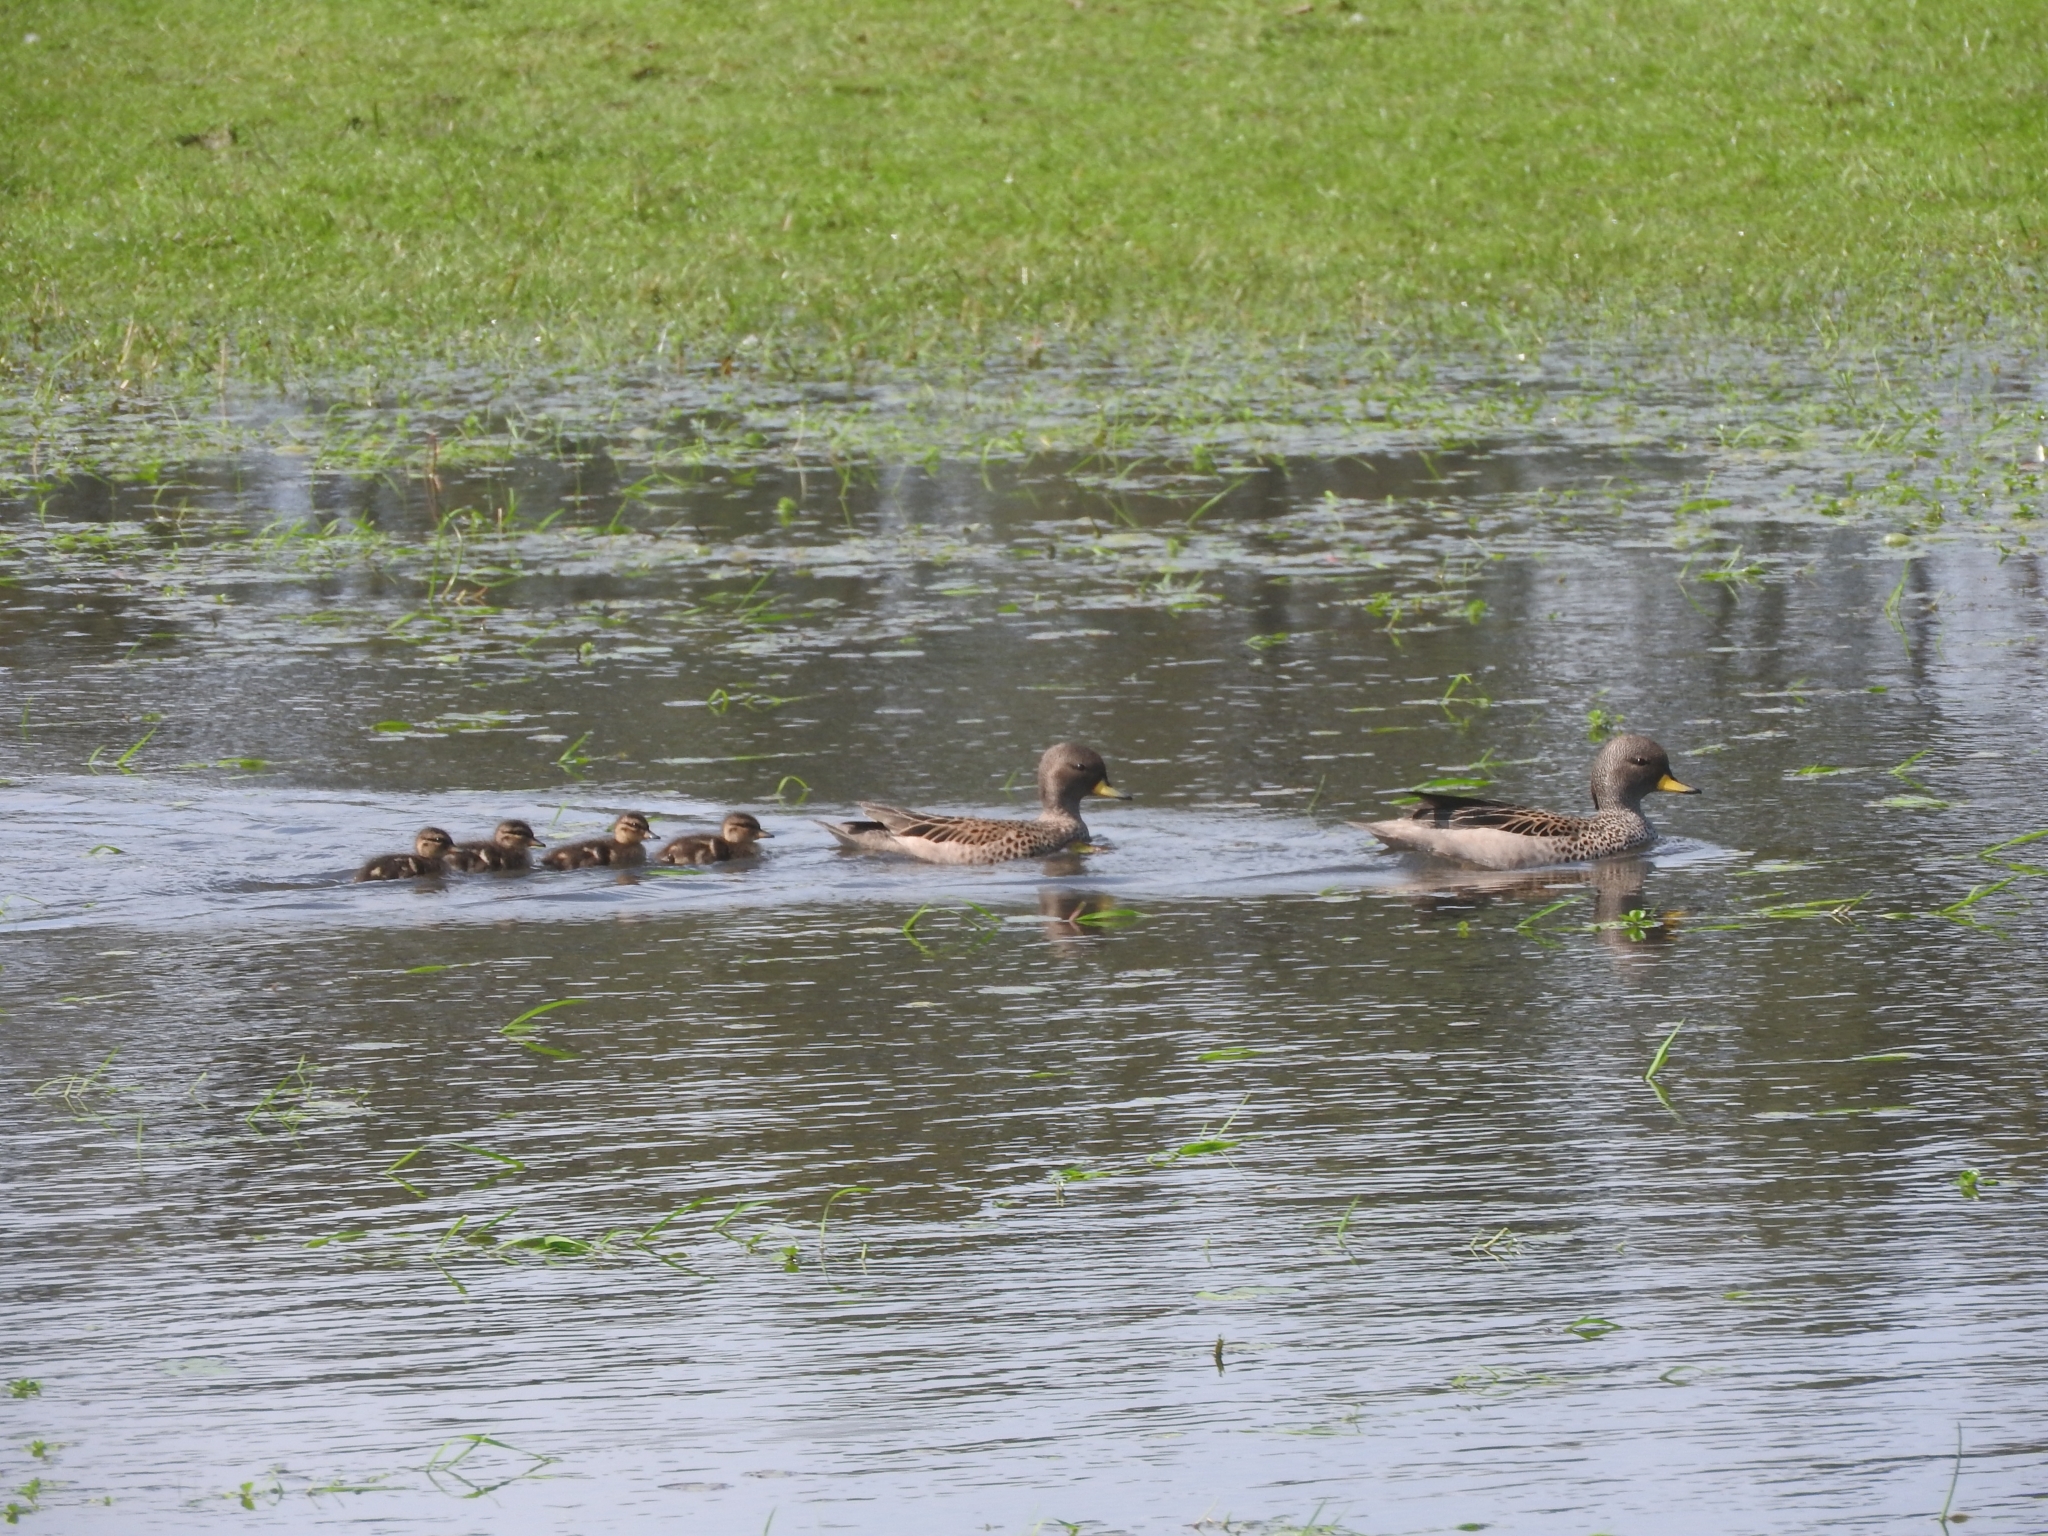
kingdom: Animalia
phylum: Chordata
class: Aves
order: Anseriformes
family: Anatidae
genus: Anas
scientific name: Anas flavirostris
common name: Yellow-billed teal
